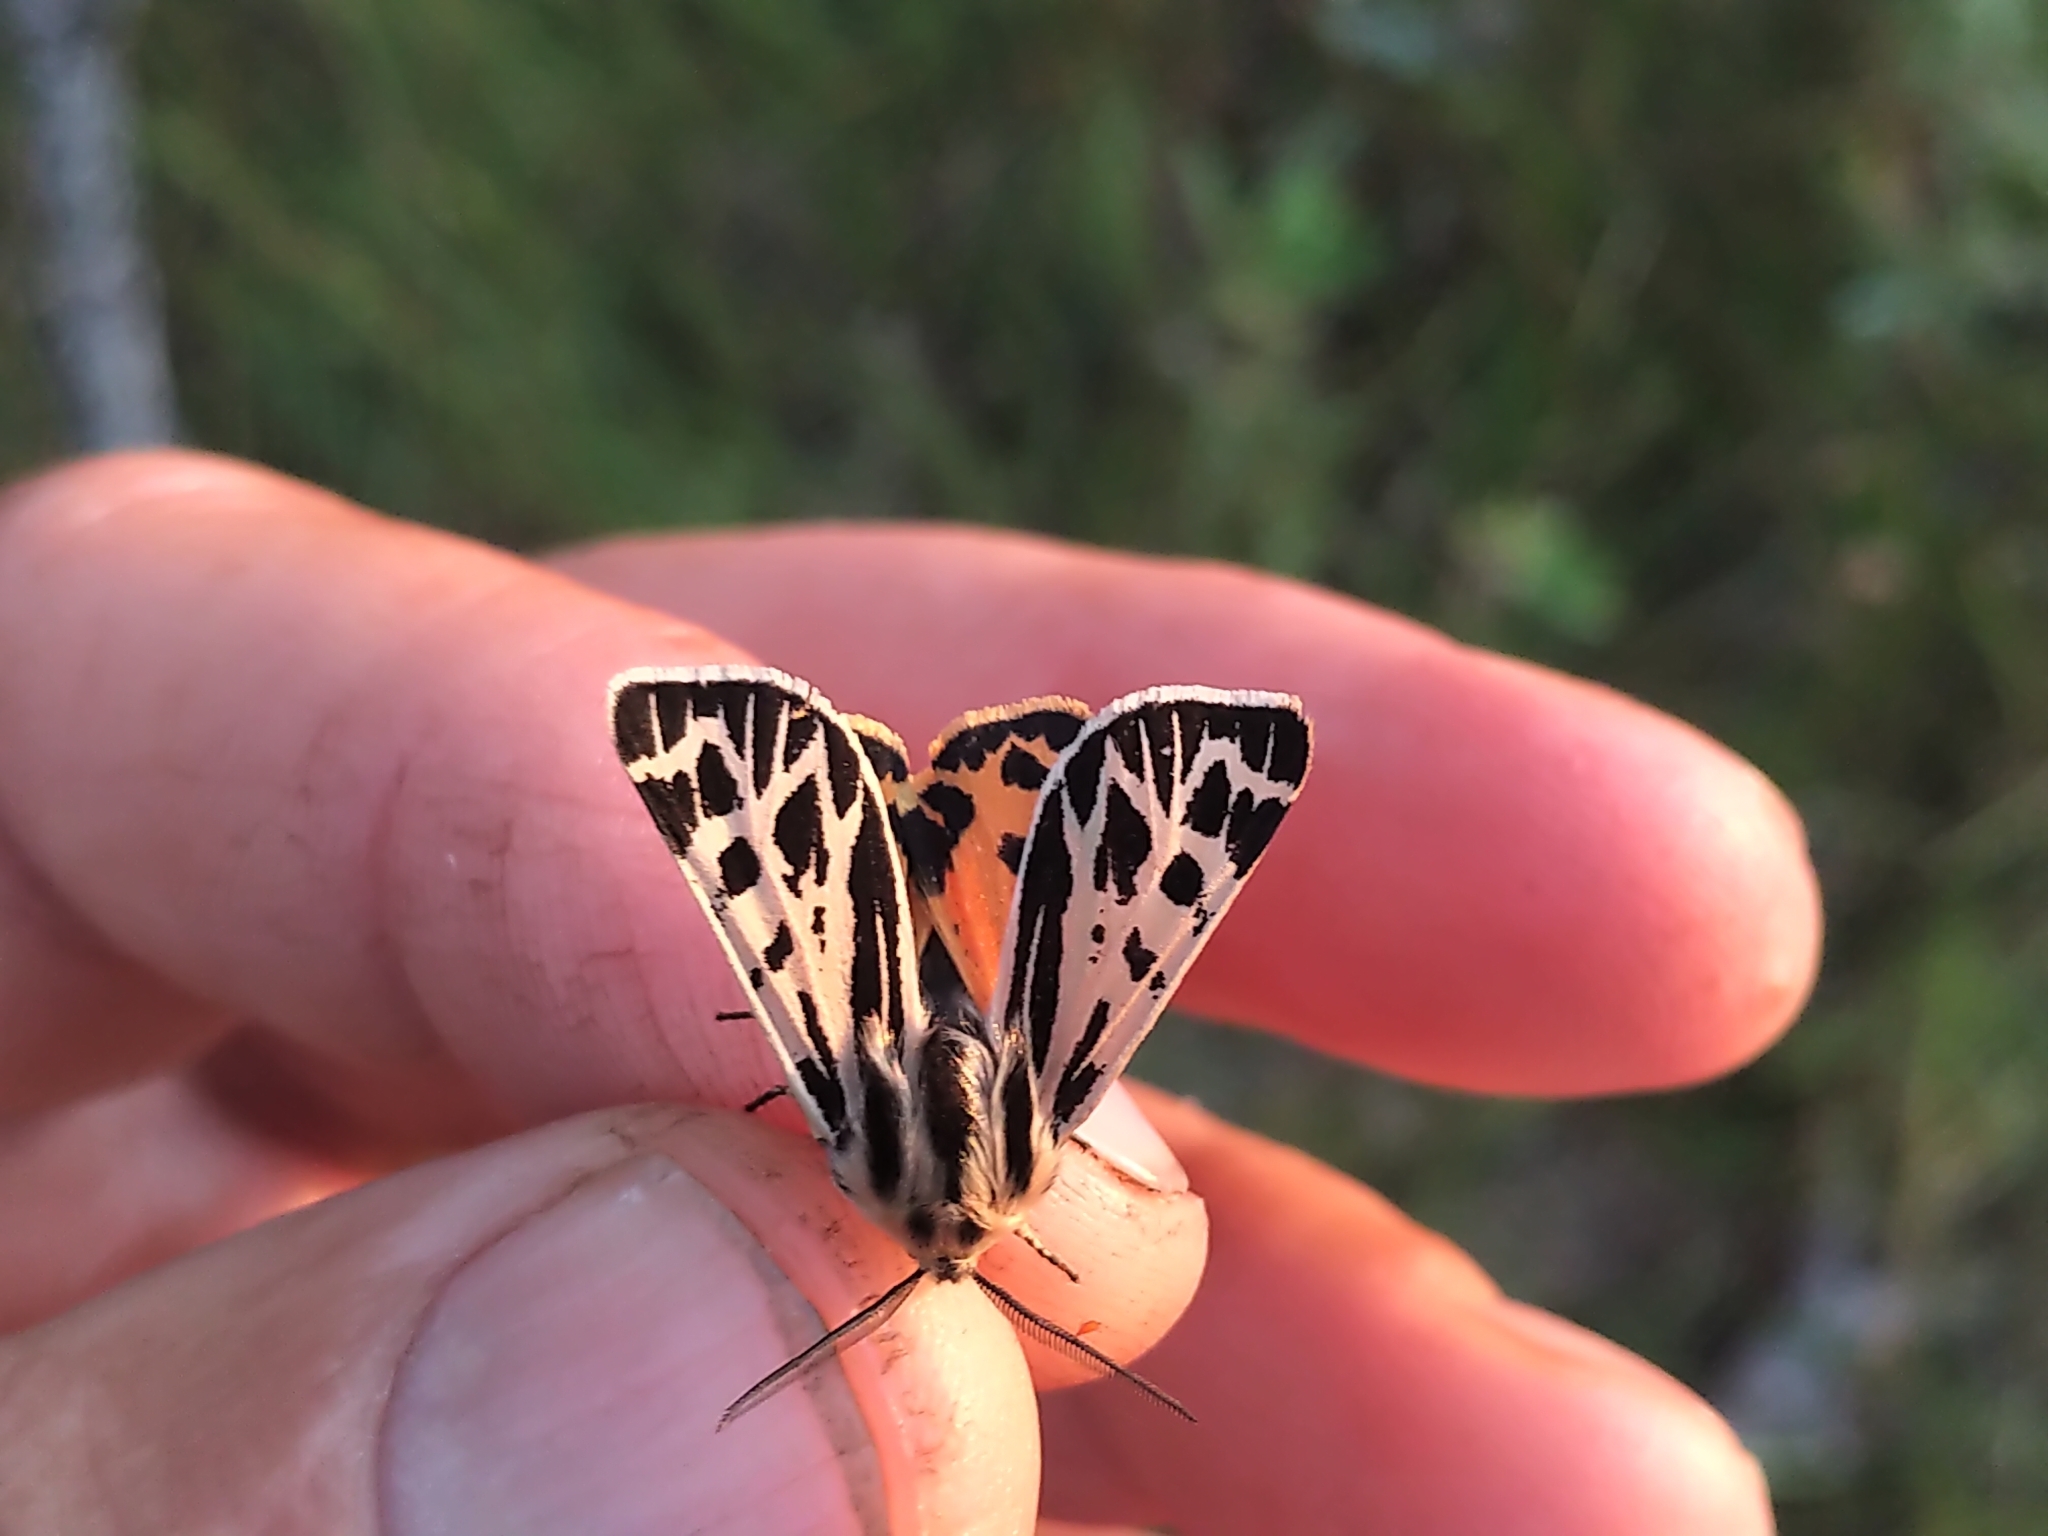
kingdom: Animalia
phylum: Arthropoda
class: Insecta
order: Lepidoptera
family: Erebidae
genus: Apantesis
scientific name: Apantesis obliterata
